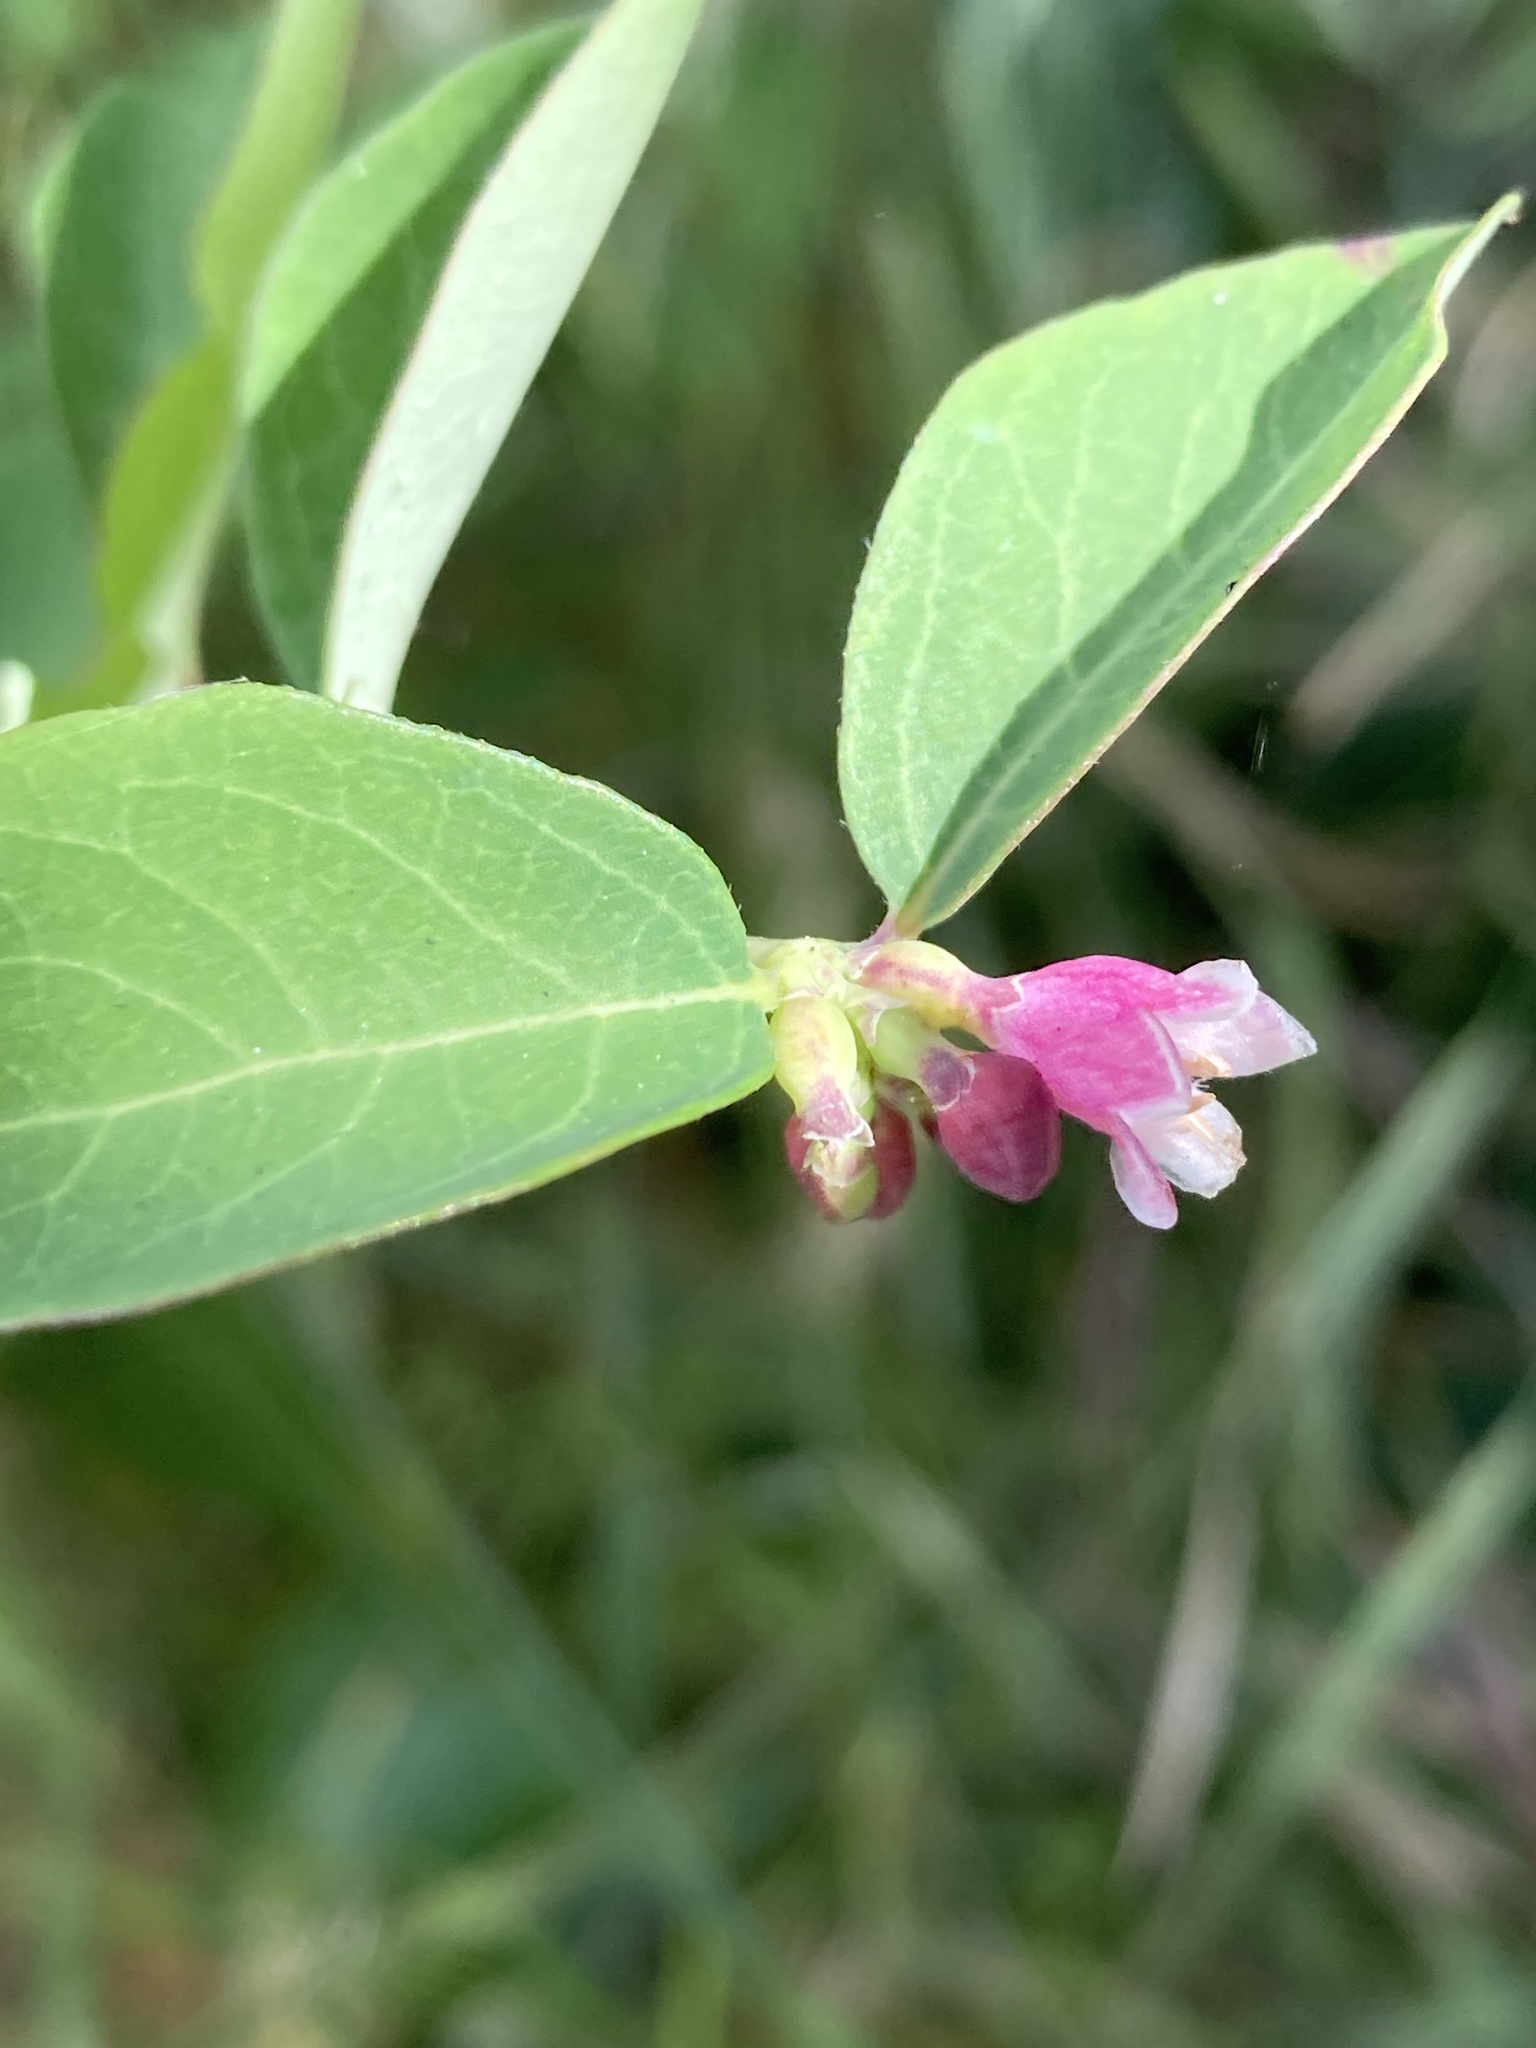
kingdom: Plantae
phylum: Tracheophyta
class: Magnoliopsida
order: Dipsacales
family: Caprifoliaceae
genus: Symphoricarpos
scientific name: Symphoricarpos albus
